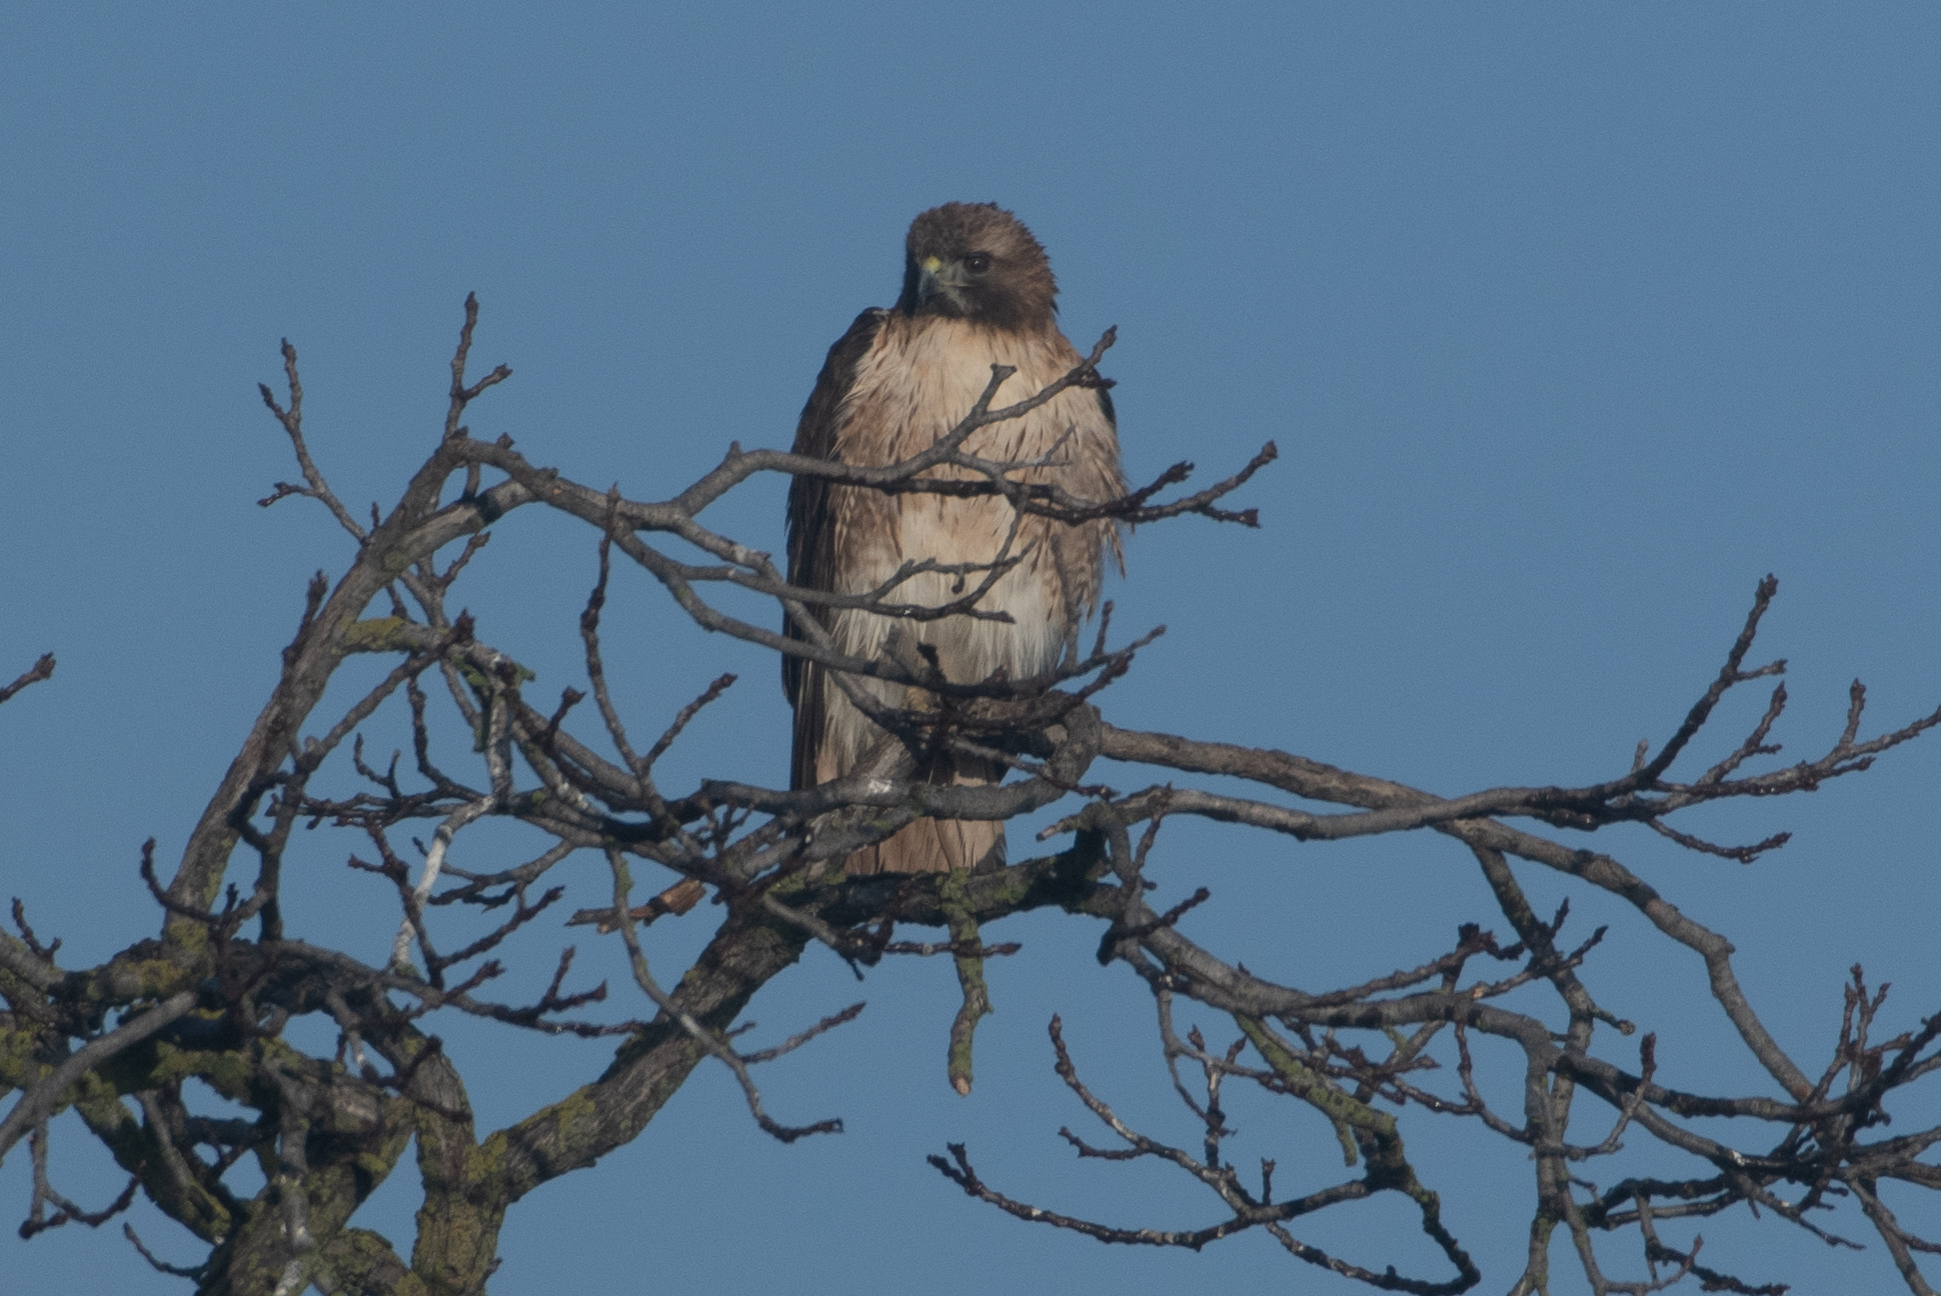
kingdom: Animalia
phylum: Chordata
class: Aves
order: Accipitriformes
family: Accipitridae
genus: Buteo
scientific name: Buteo jamaicensis
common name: Red-tailed hawk
